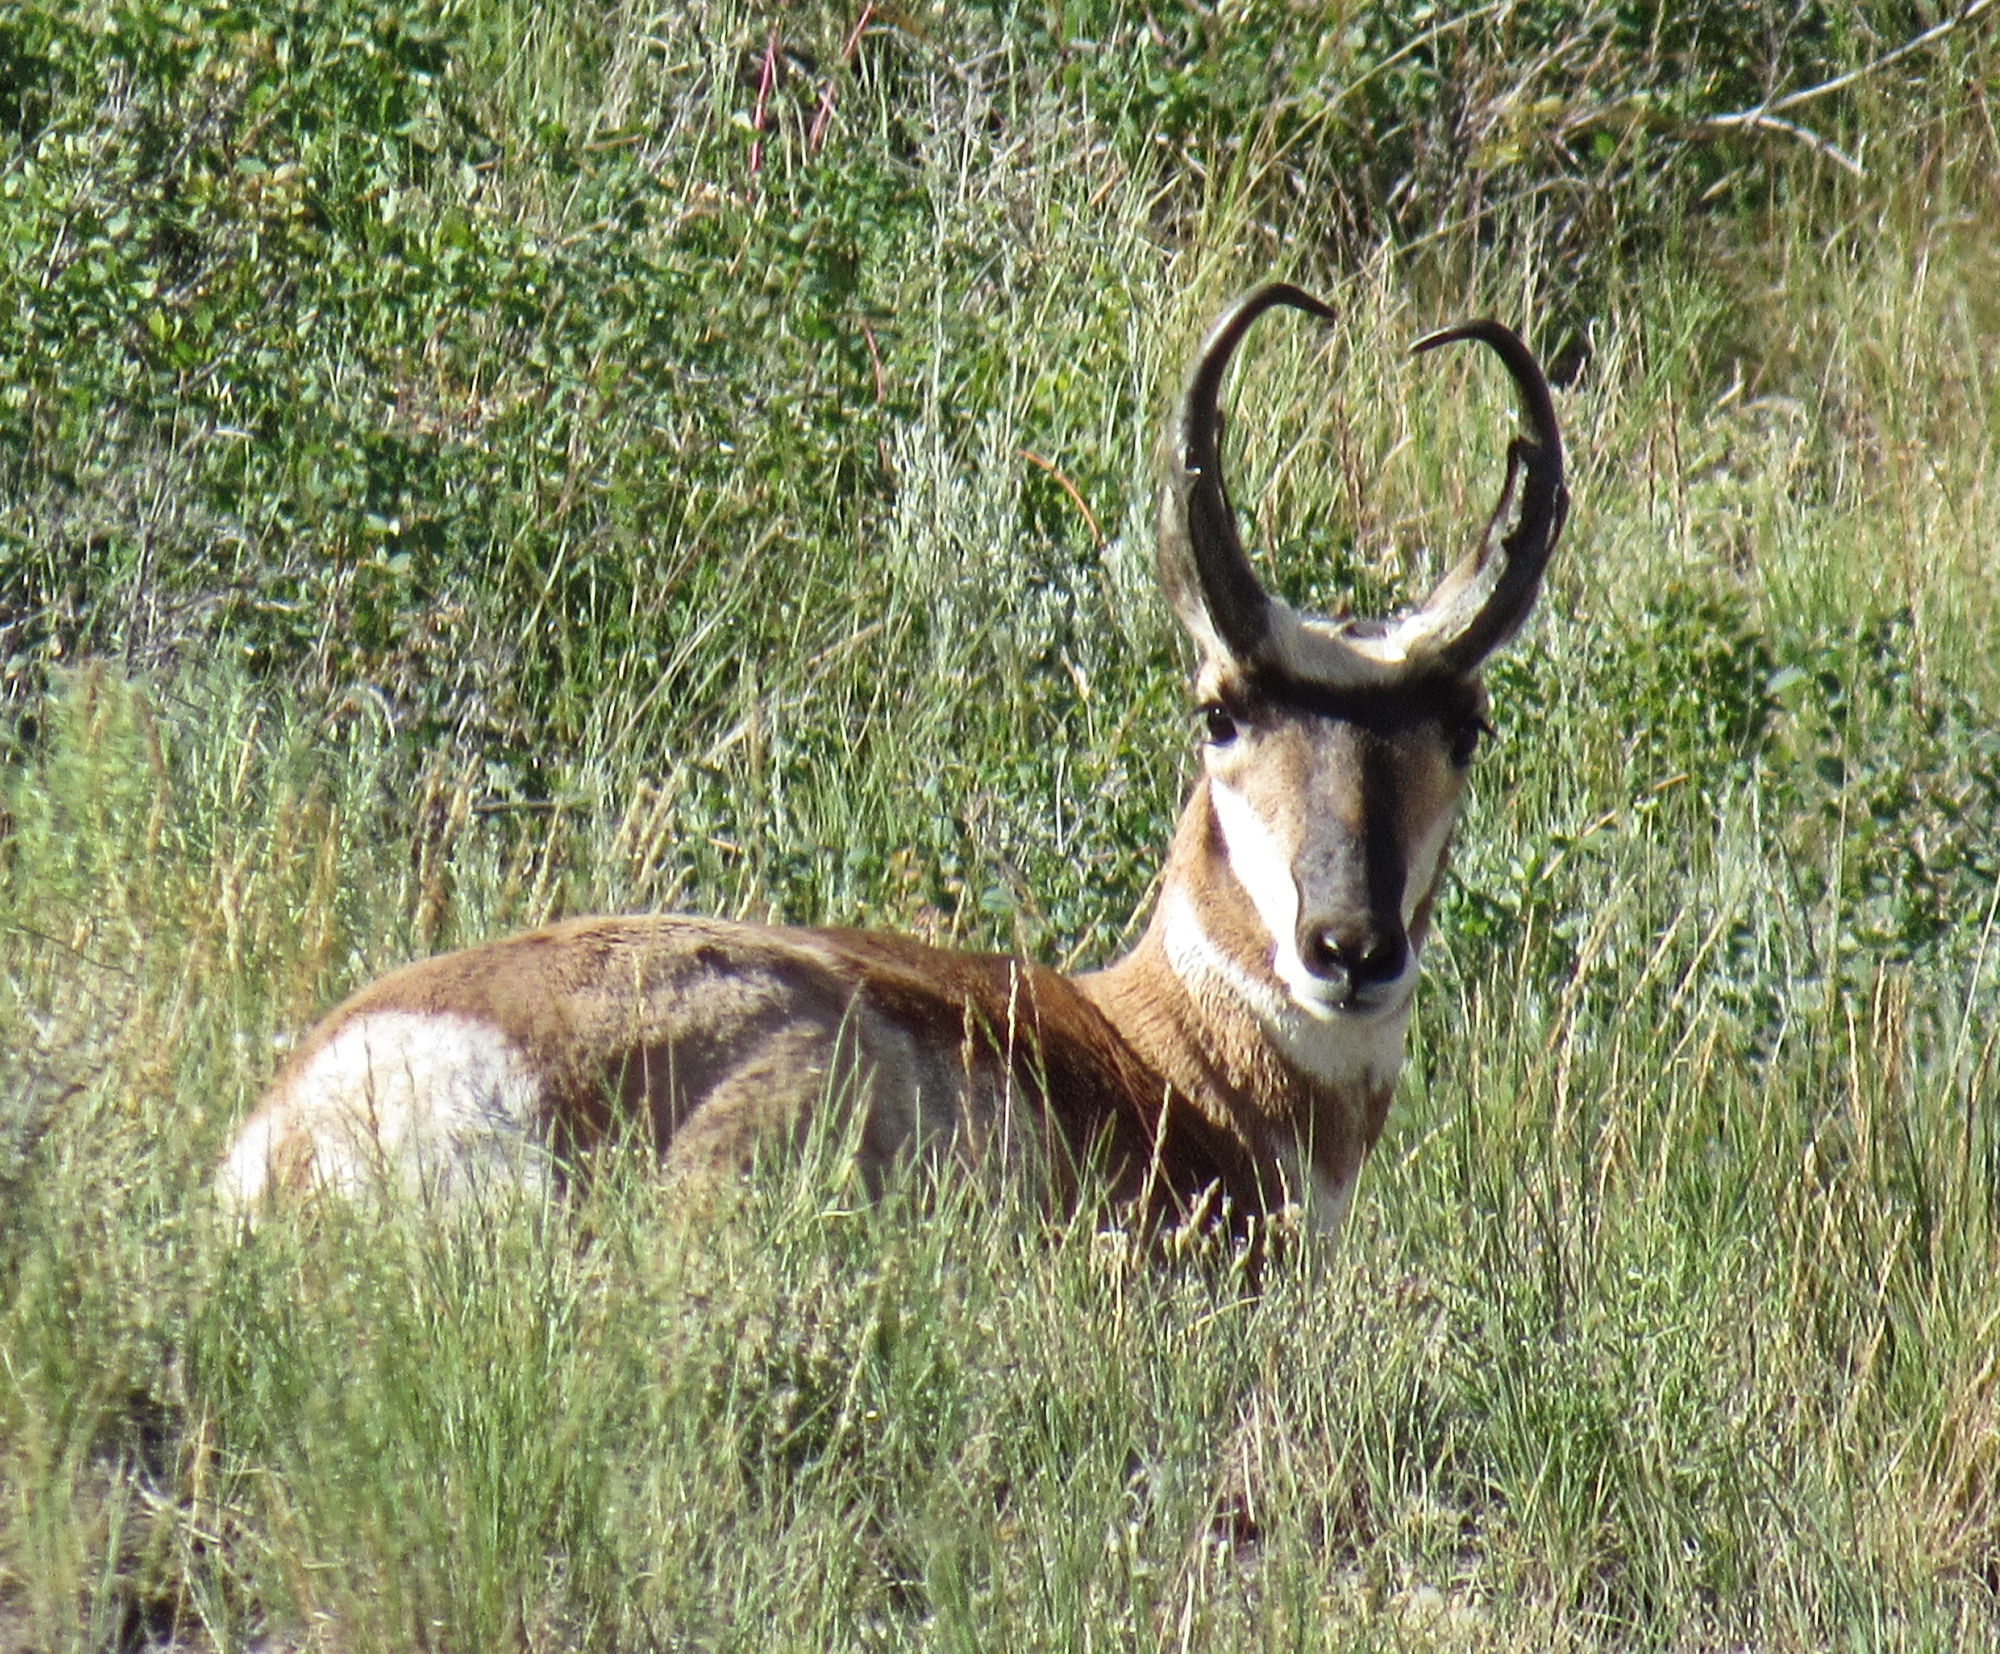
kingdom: Animalia
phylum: Chordata
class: Mammalia
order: Artiodactyla
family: Antilocapridae
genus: Antilocapra
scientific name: Antilocapra americana
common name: Pronghorn
